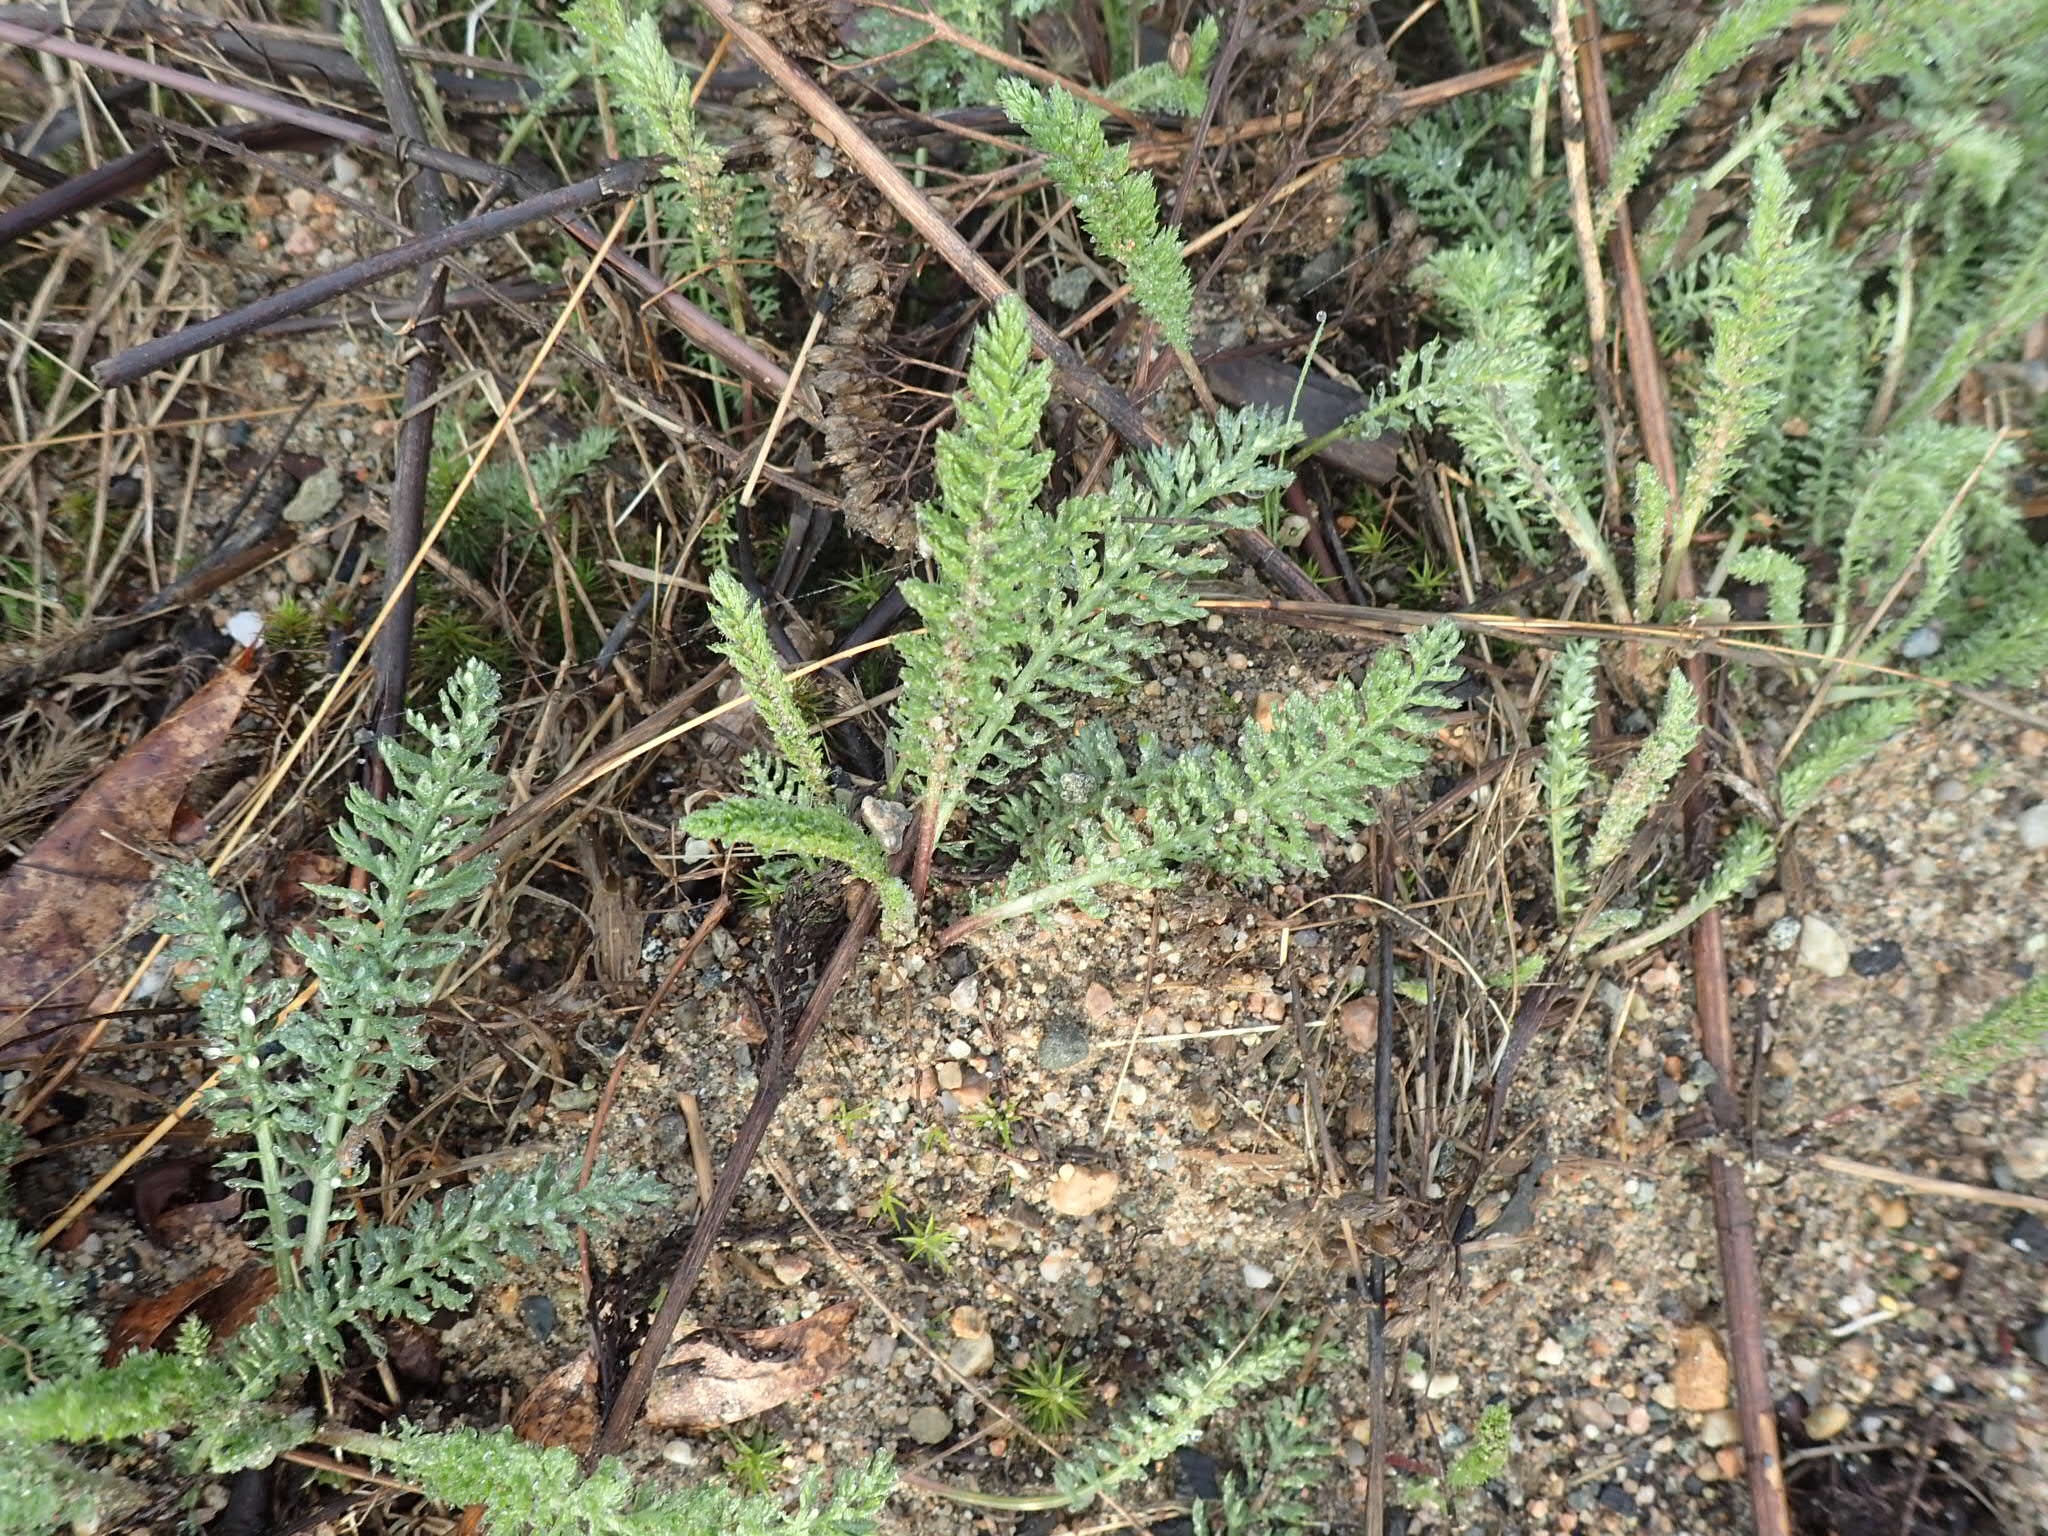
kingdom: Plantae
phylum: Tracheophyta
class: Magnoliopsida
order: Asterales
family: Asteraceae
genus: Achillea
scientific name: Achillea millefolium
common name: Yarrow
